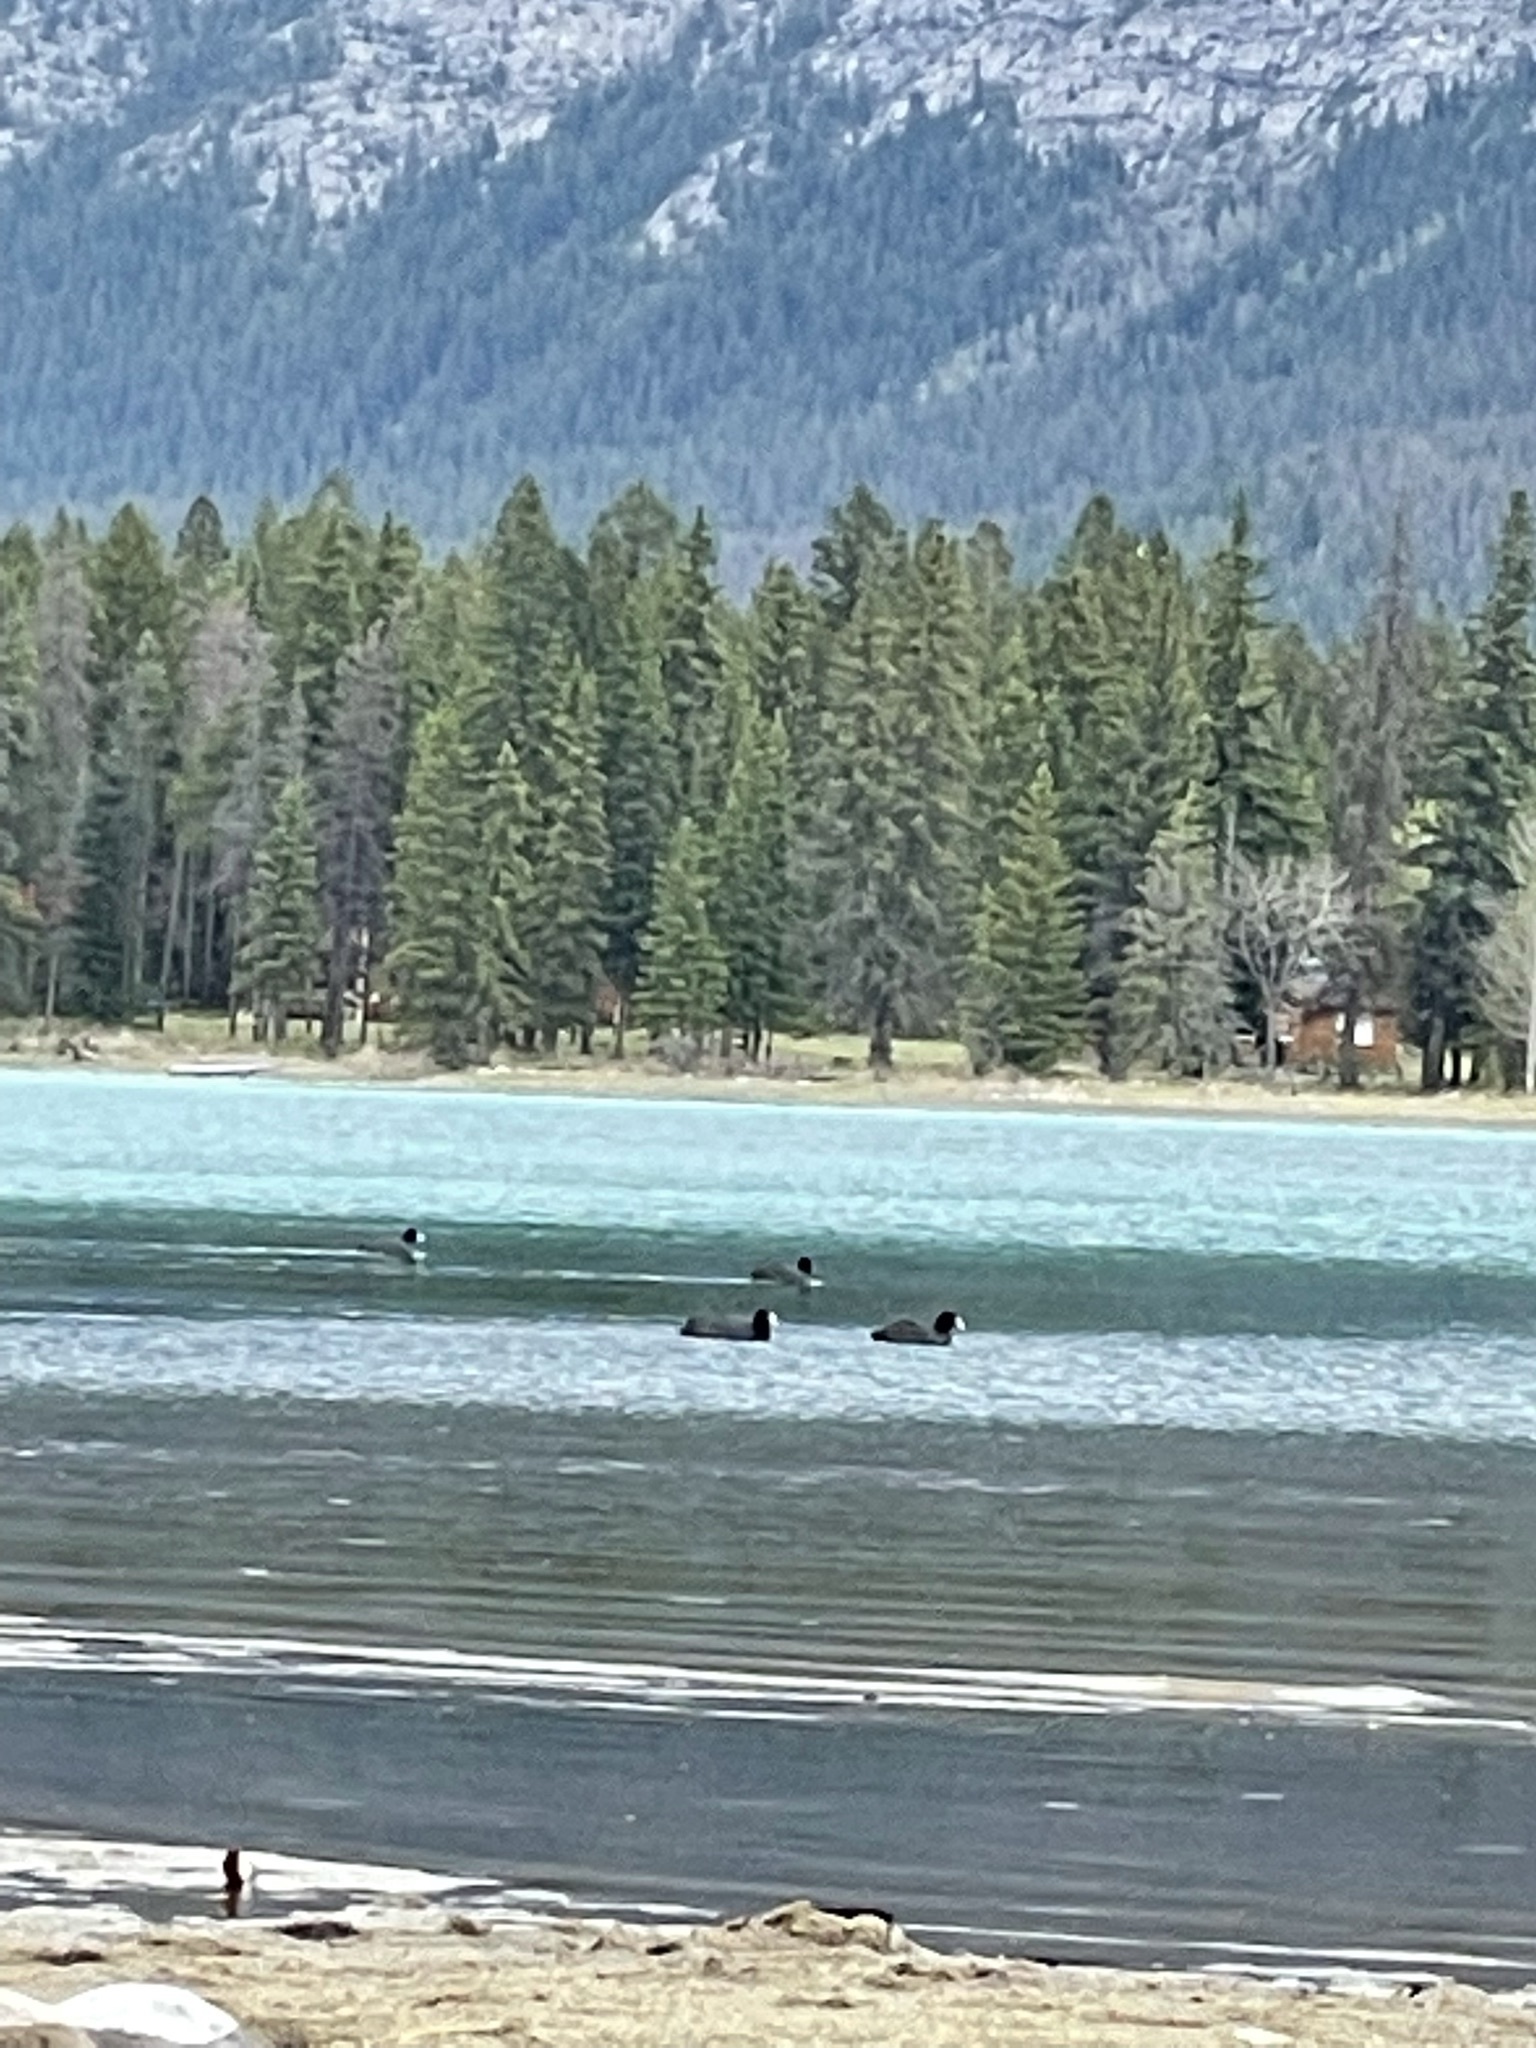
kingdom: Animalia
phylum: Chordata
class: Aves
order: Gruiformes
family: Rallidae
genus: Fulica
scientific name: Fulica americana
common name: American coot
